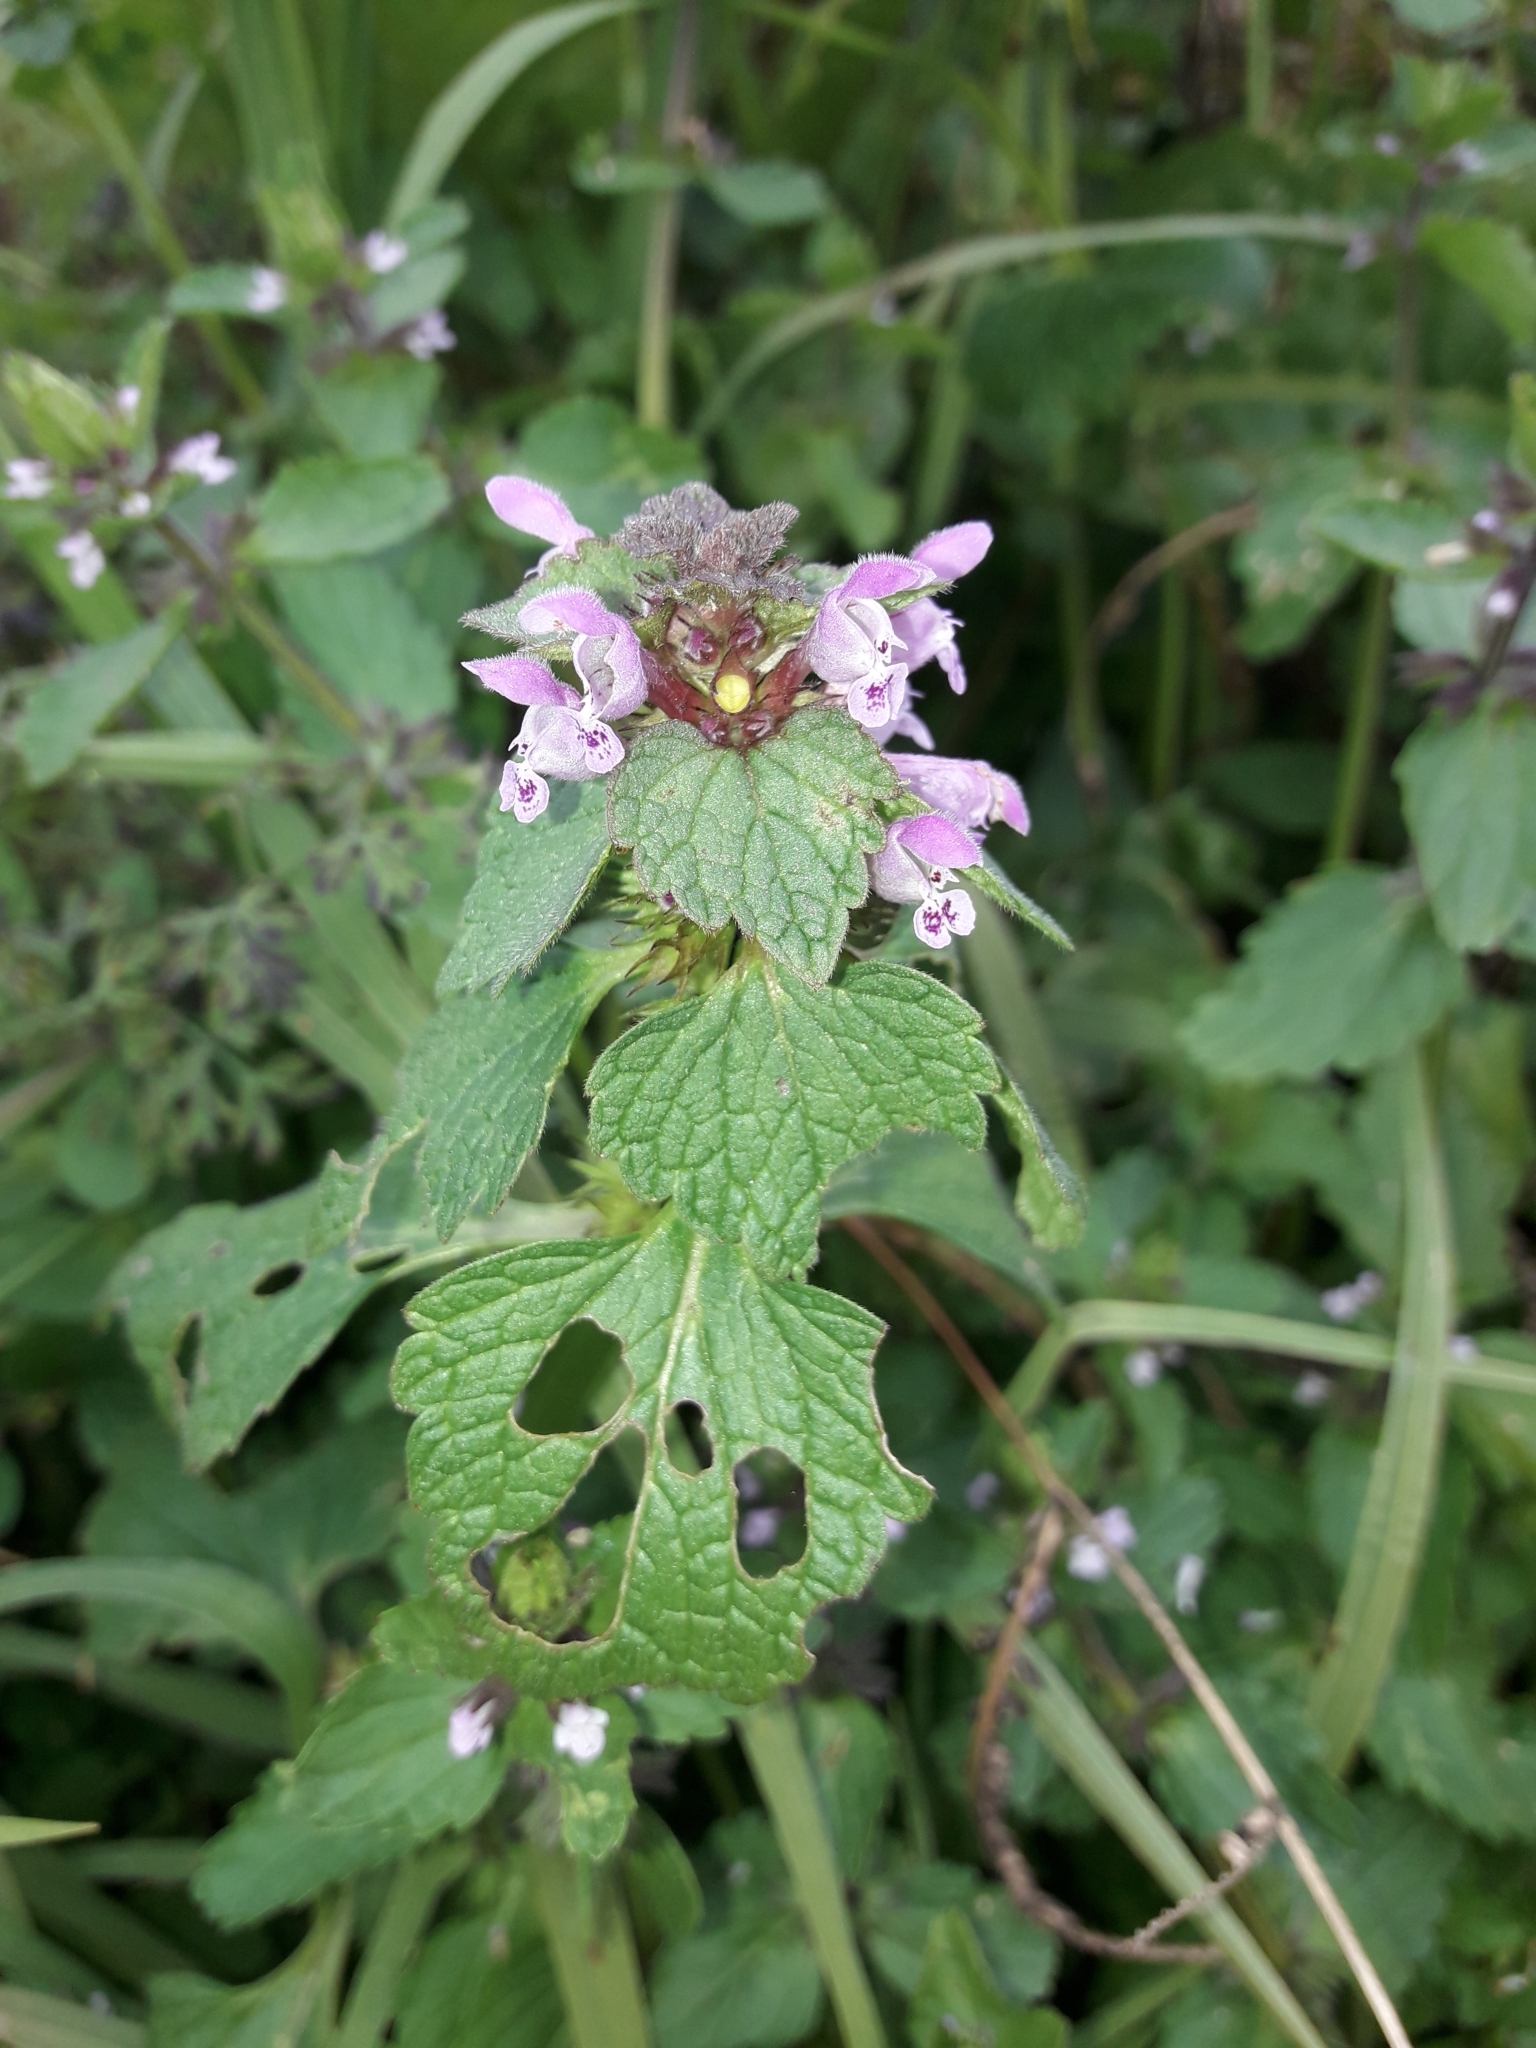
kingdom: Plantae
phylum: Tracheophyta
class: Magnoliopsida
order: Lamiales
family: Lamiaceae
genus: Lamium
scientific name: Lamium purpureum
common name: Red dead-nettle
